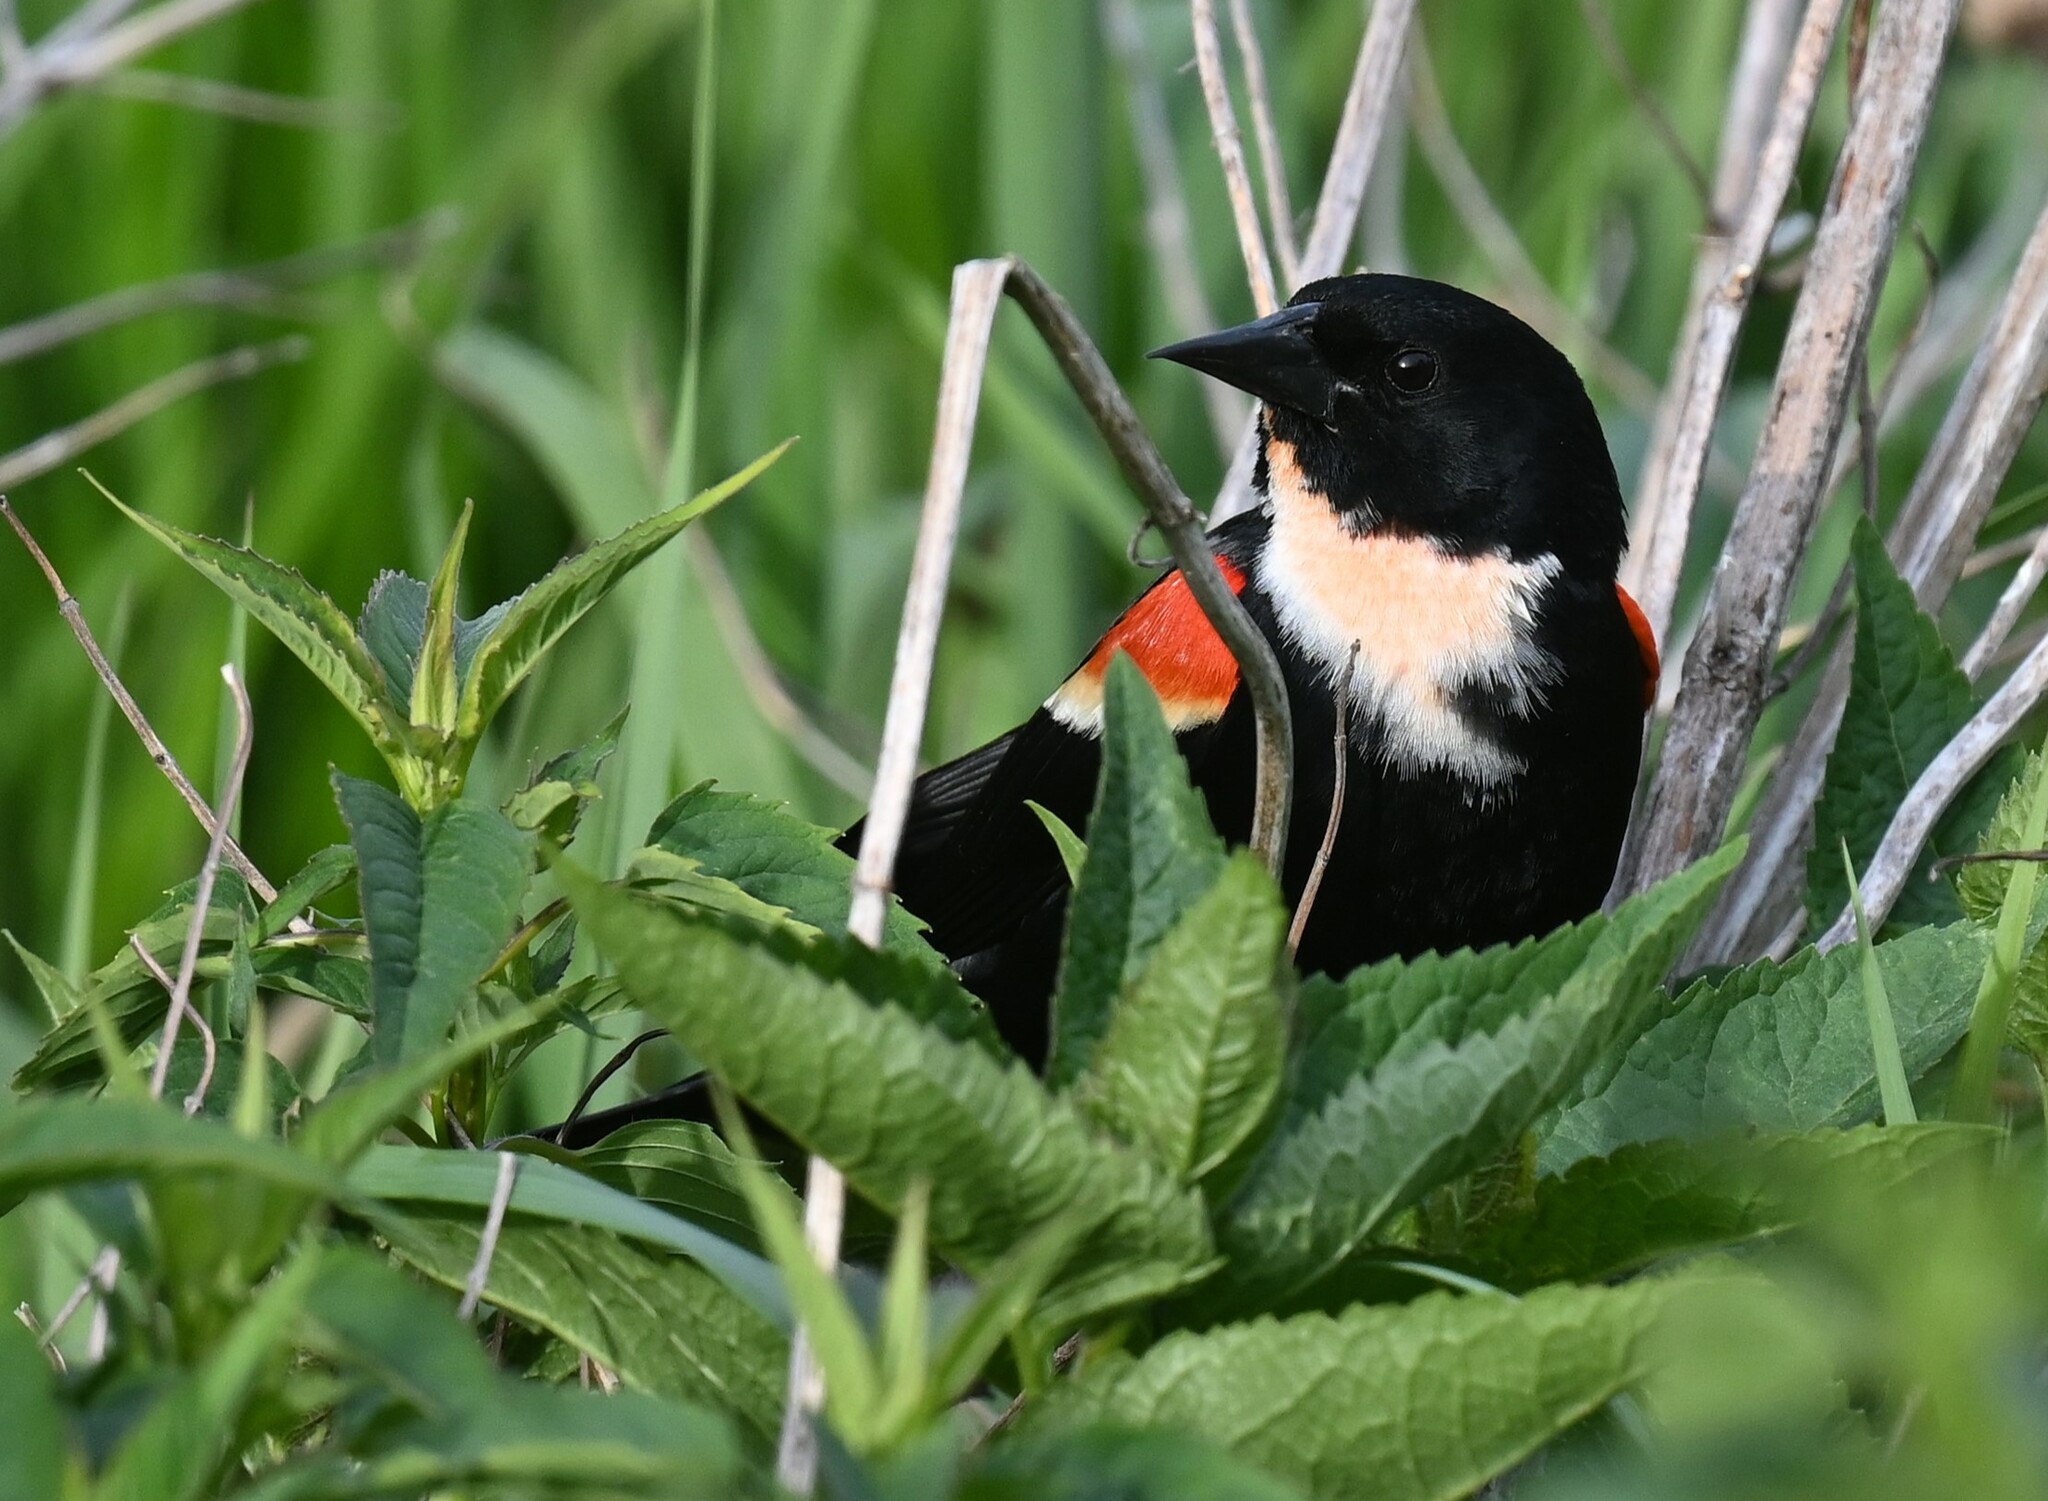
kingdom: Animalia
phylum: Chordata
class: Aves
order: Passeriformes
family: Icteridae
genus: Agelaius
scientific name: Agelaius phoeniceus
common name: Red-winged blackbird
